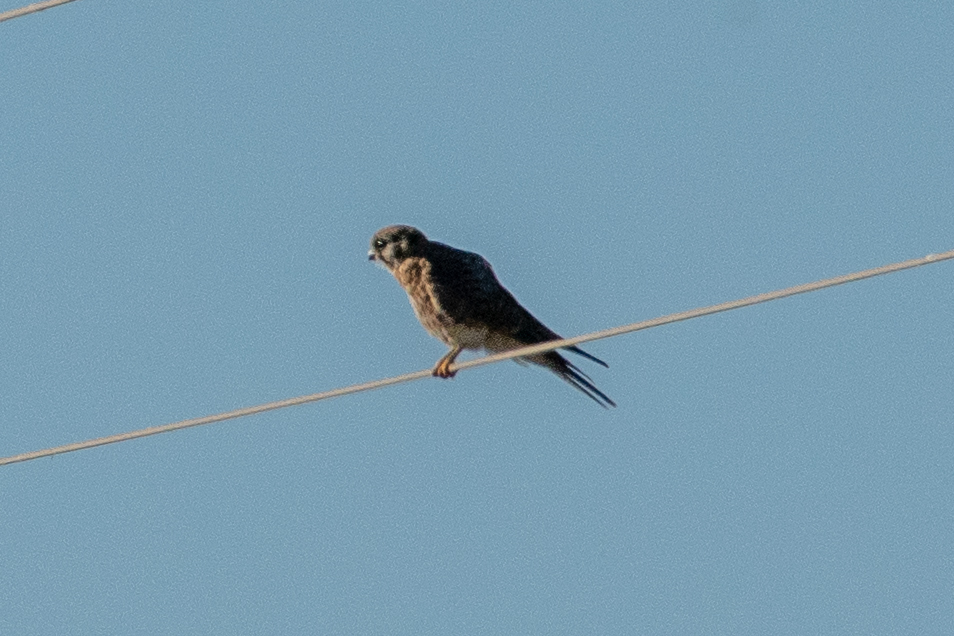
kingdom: Animalia
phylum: Chordata
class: Aves
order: Falconiformes
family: Falconidae
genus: Falco
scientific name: Falco sparverius
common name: American kestrel
